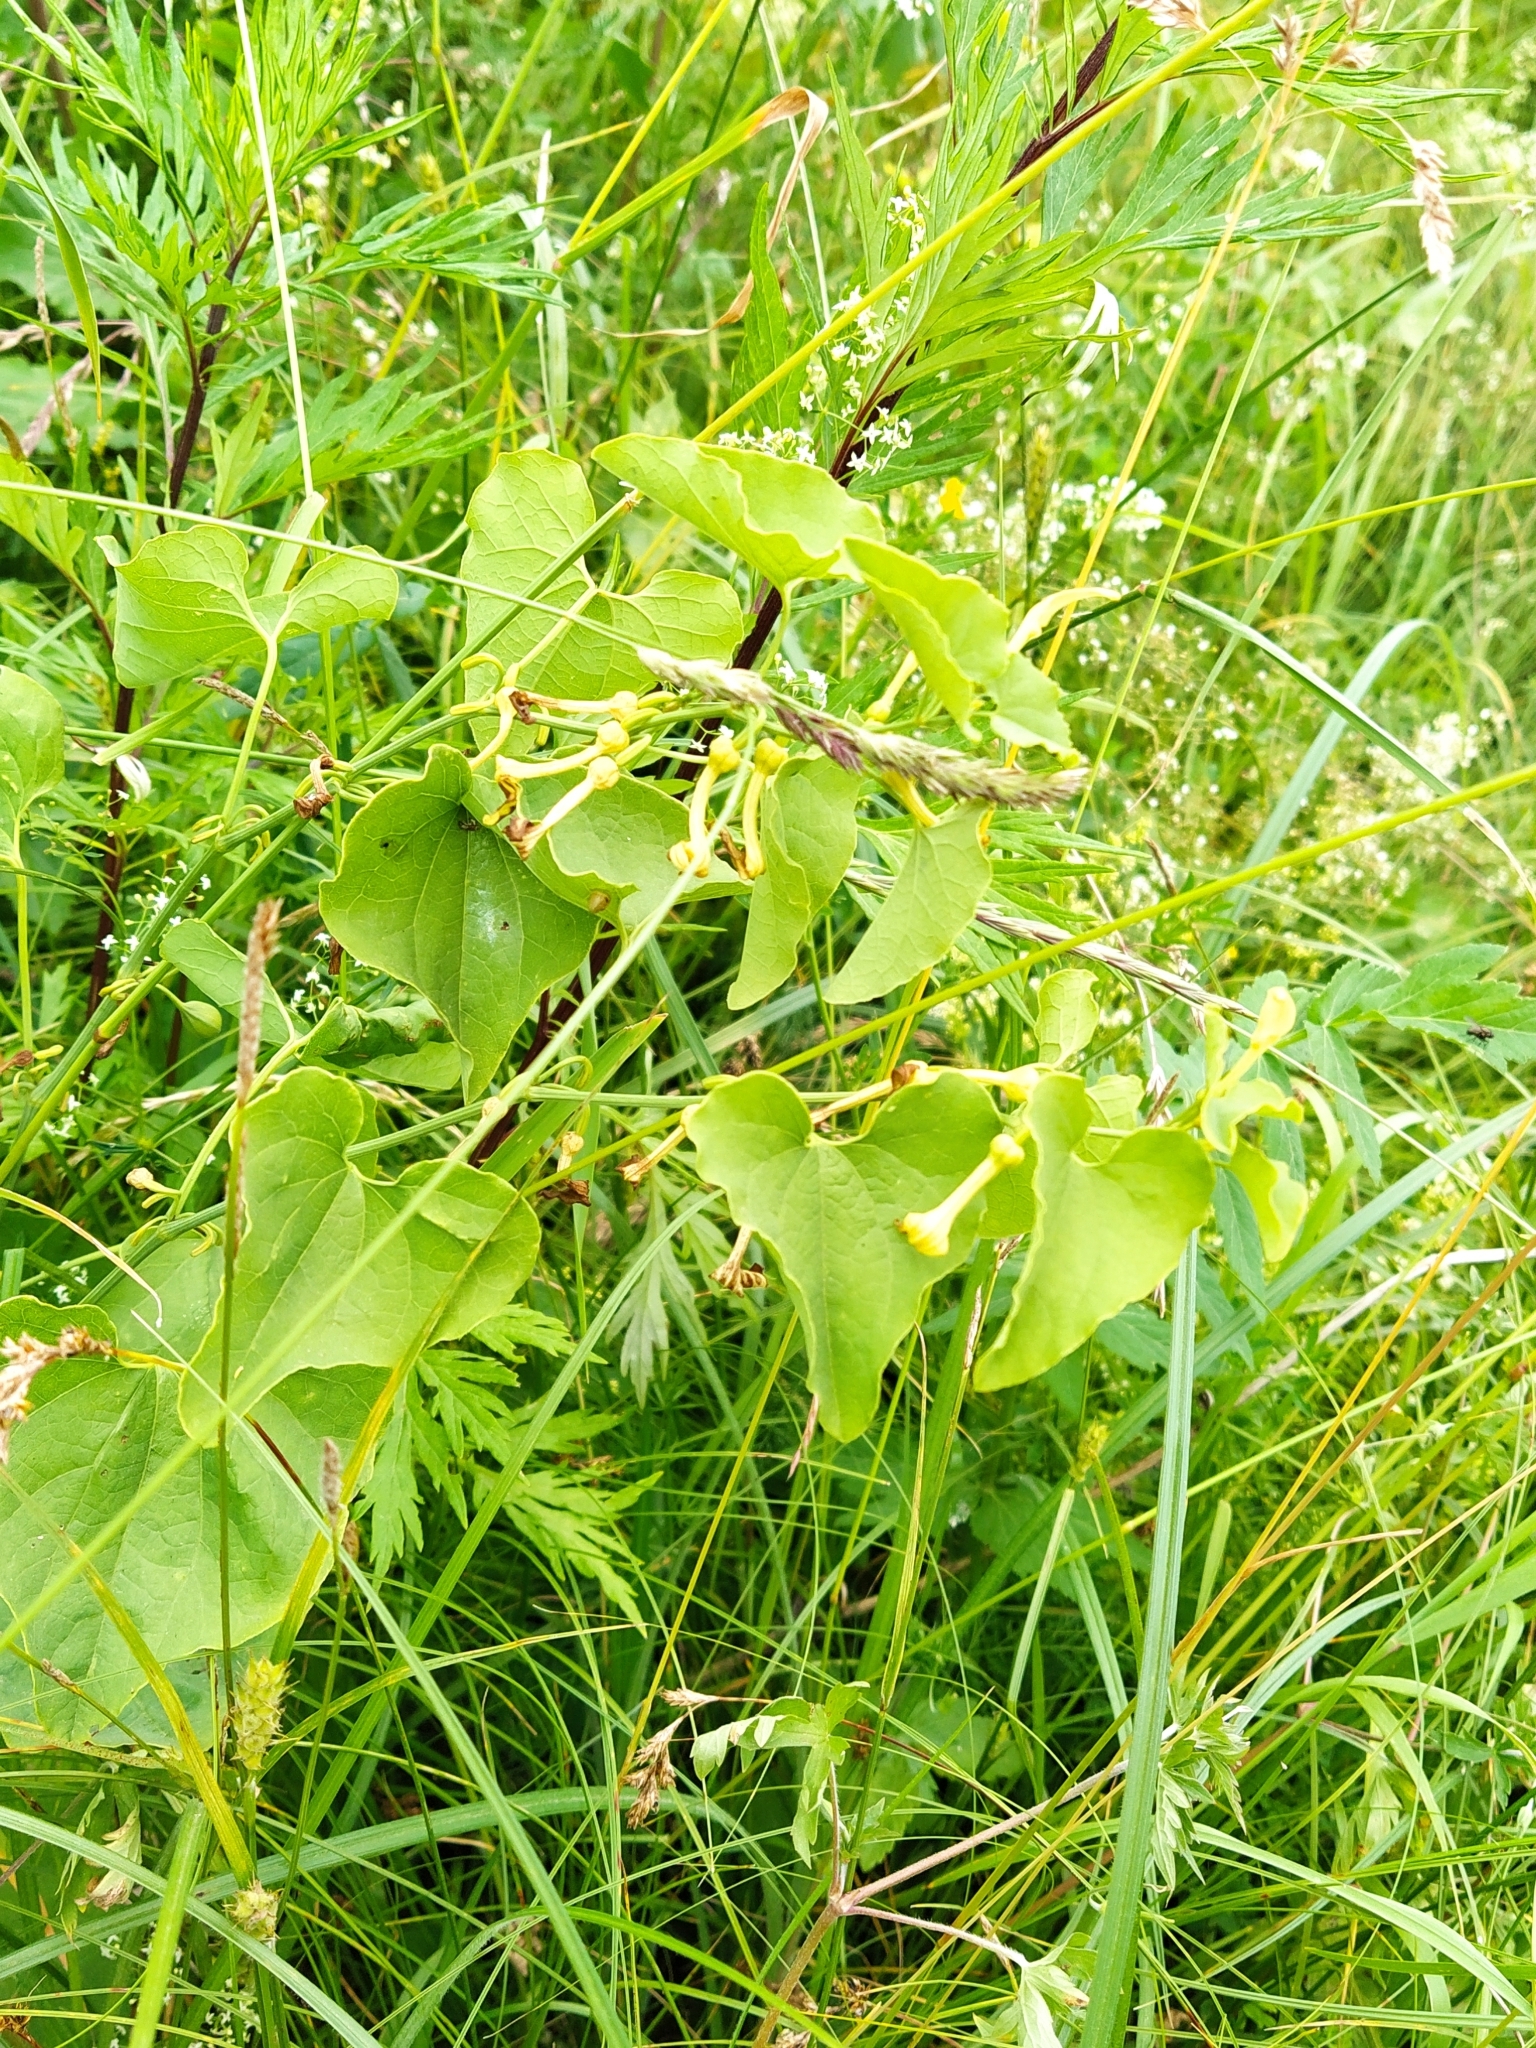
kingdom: Plantae
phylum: Tracheophyta
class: Magnoliopsida
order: Piperales
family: Aristolochiaceae
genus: Aristolochia
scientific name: Aristolochia clematitis
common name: Birthwort
